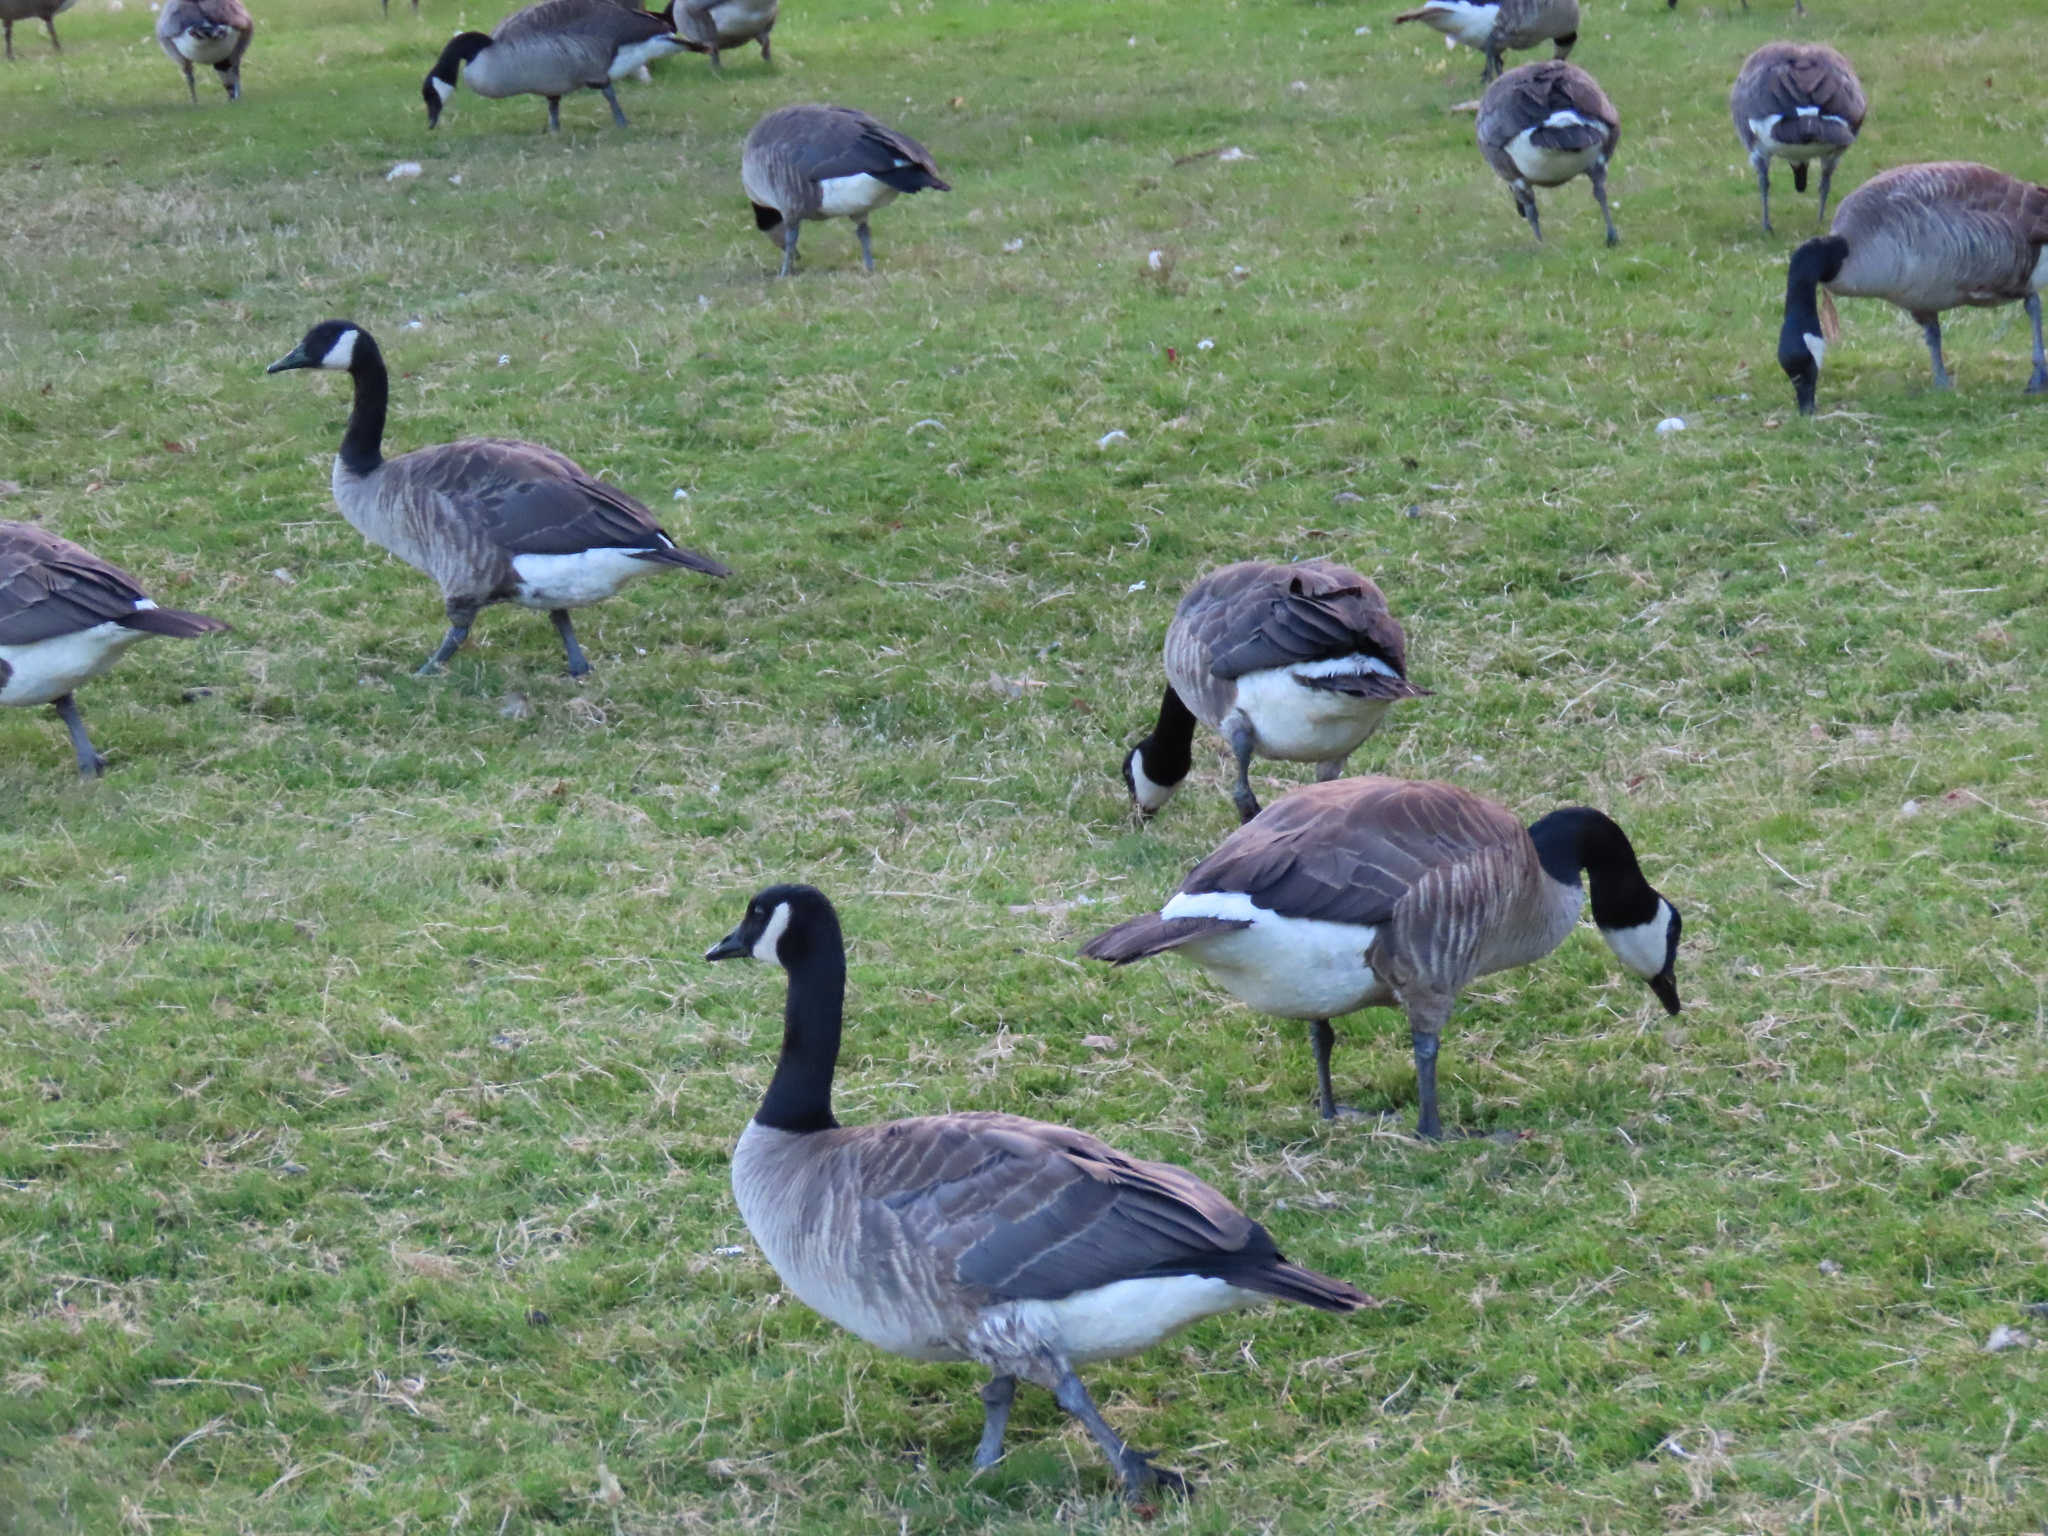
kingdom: Animalia
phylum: Chordata
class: Aves
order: Anseriformes
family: Anatidae
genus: Branta
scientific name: Branta canadensis
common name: Canada goose
